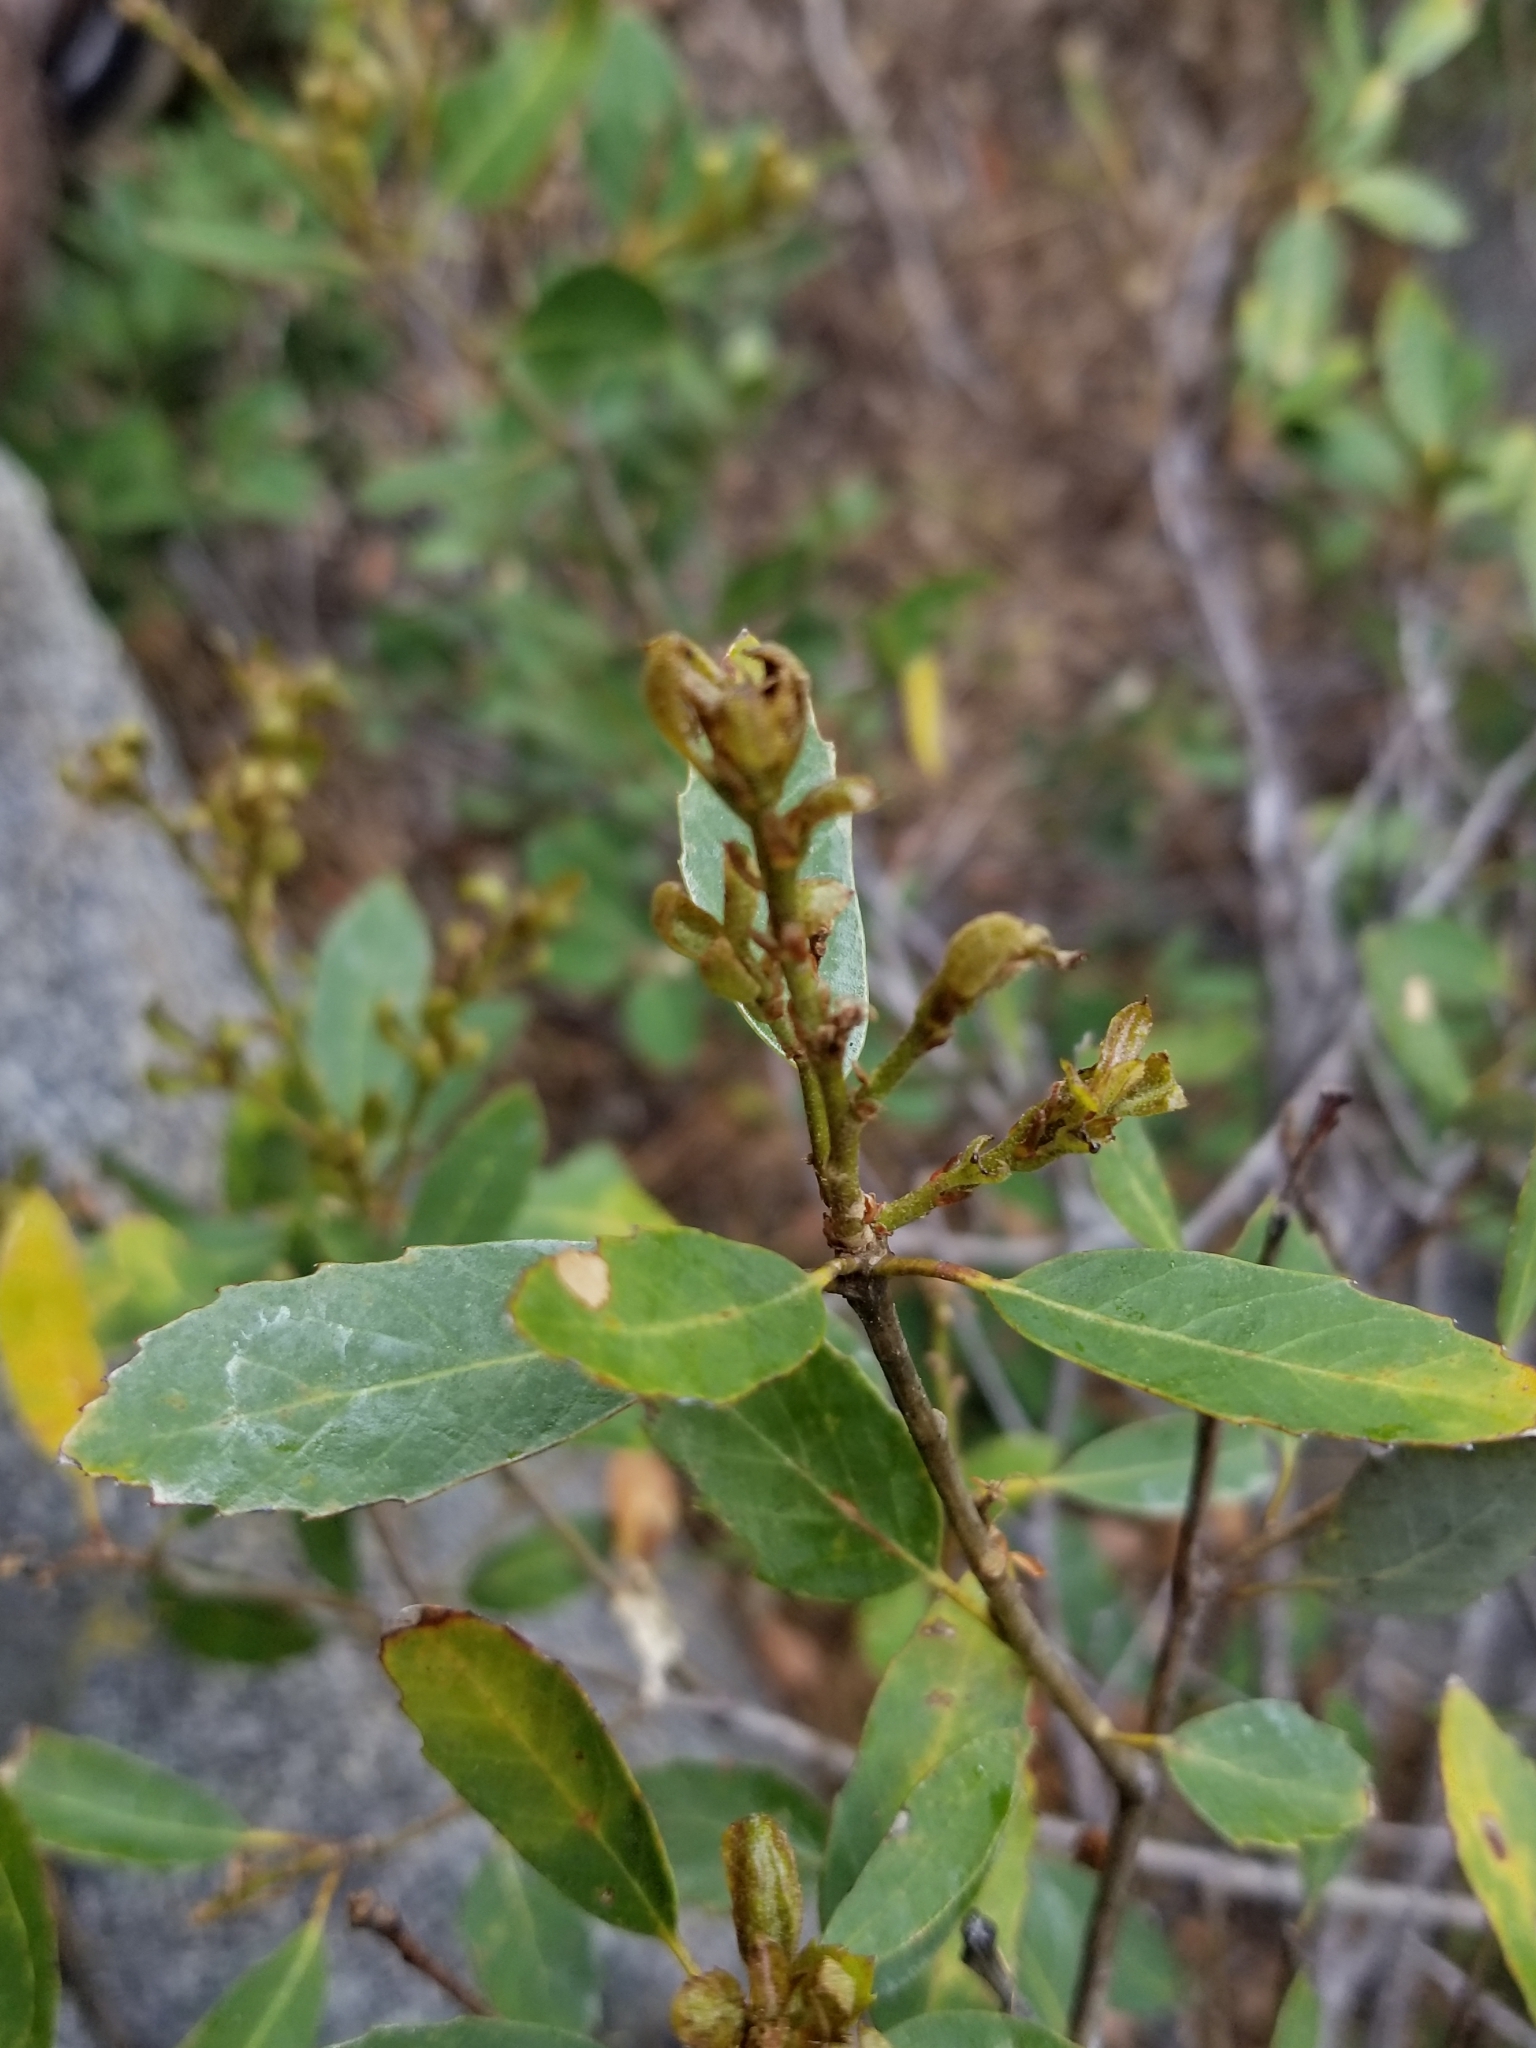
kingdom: Plantae
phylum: Tracheophyta
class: Magnoliopsida
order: Fagales
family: Fagaceae
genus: Quercus
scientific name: Quercus vacciniifolia
